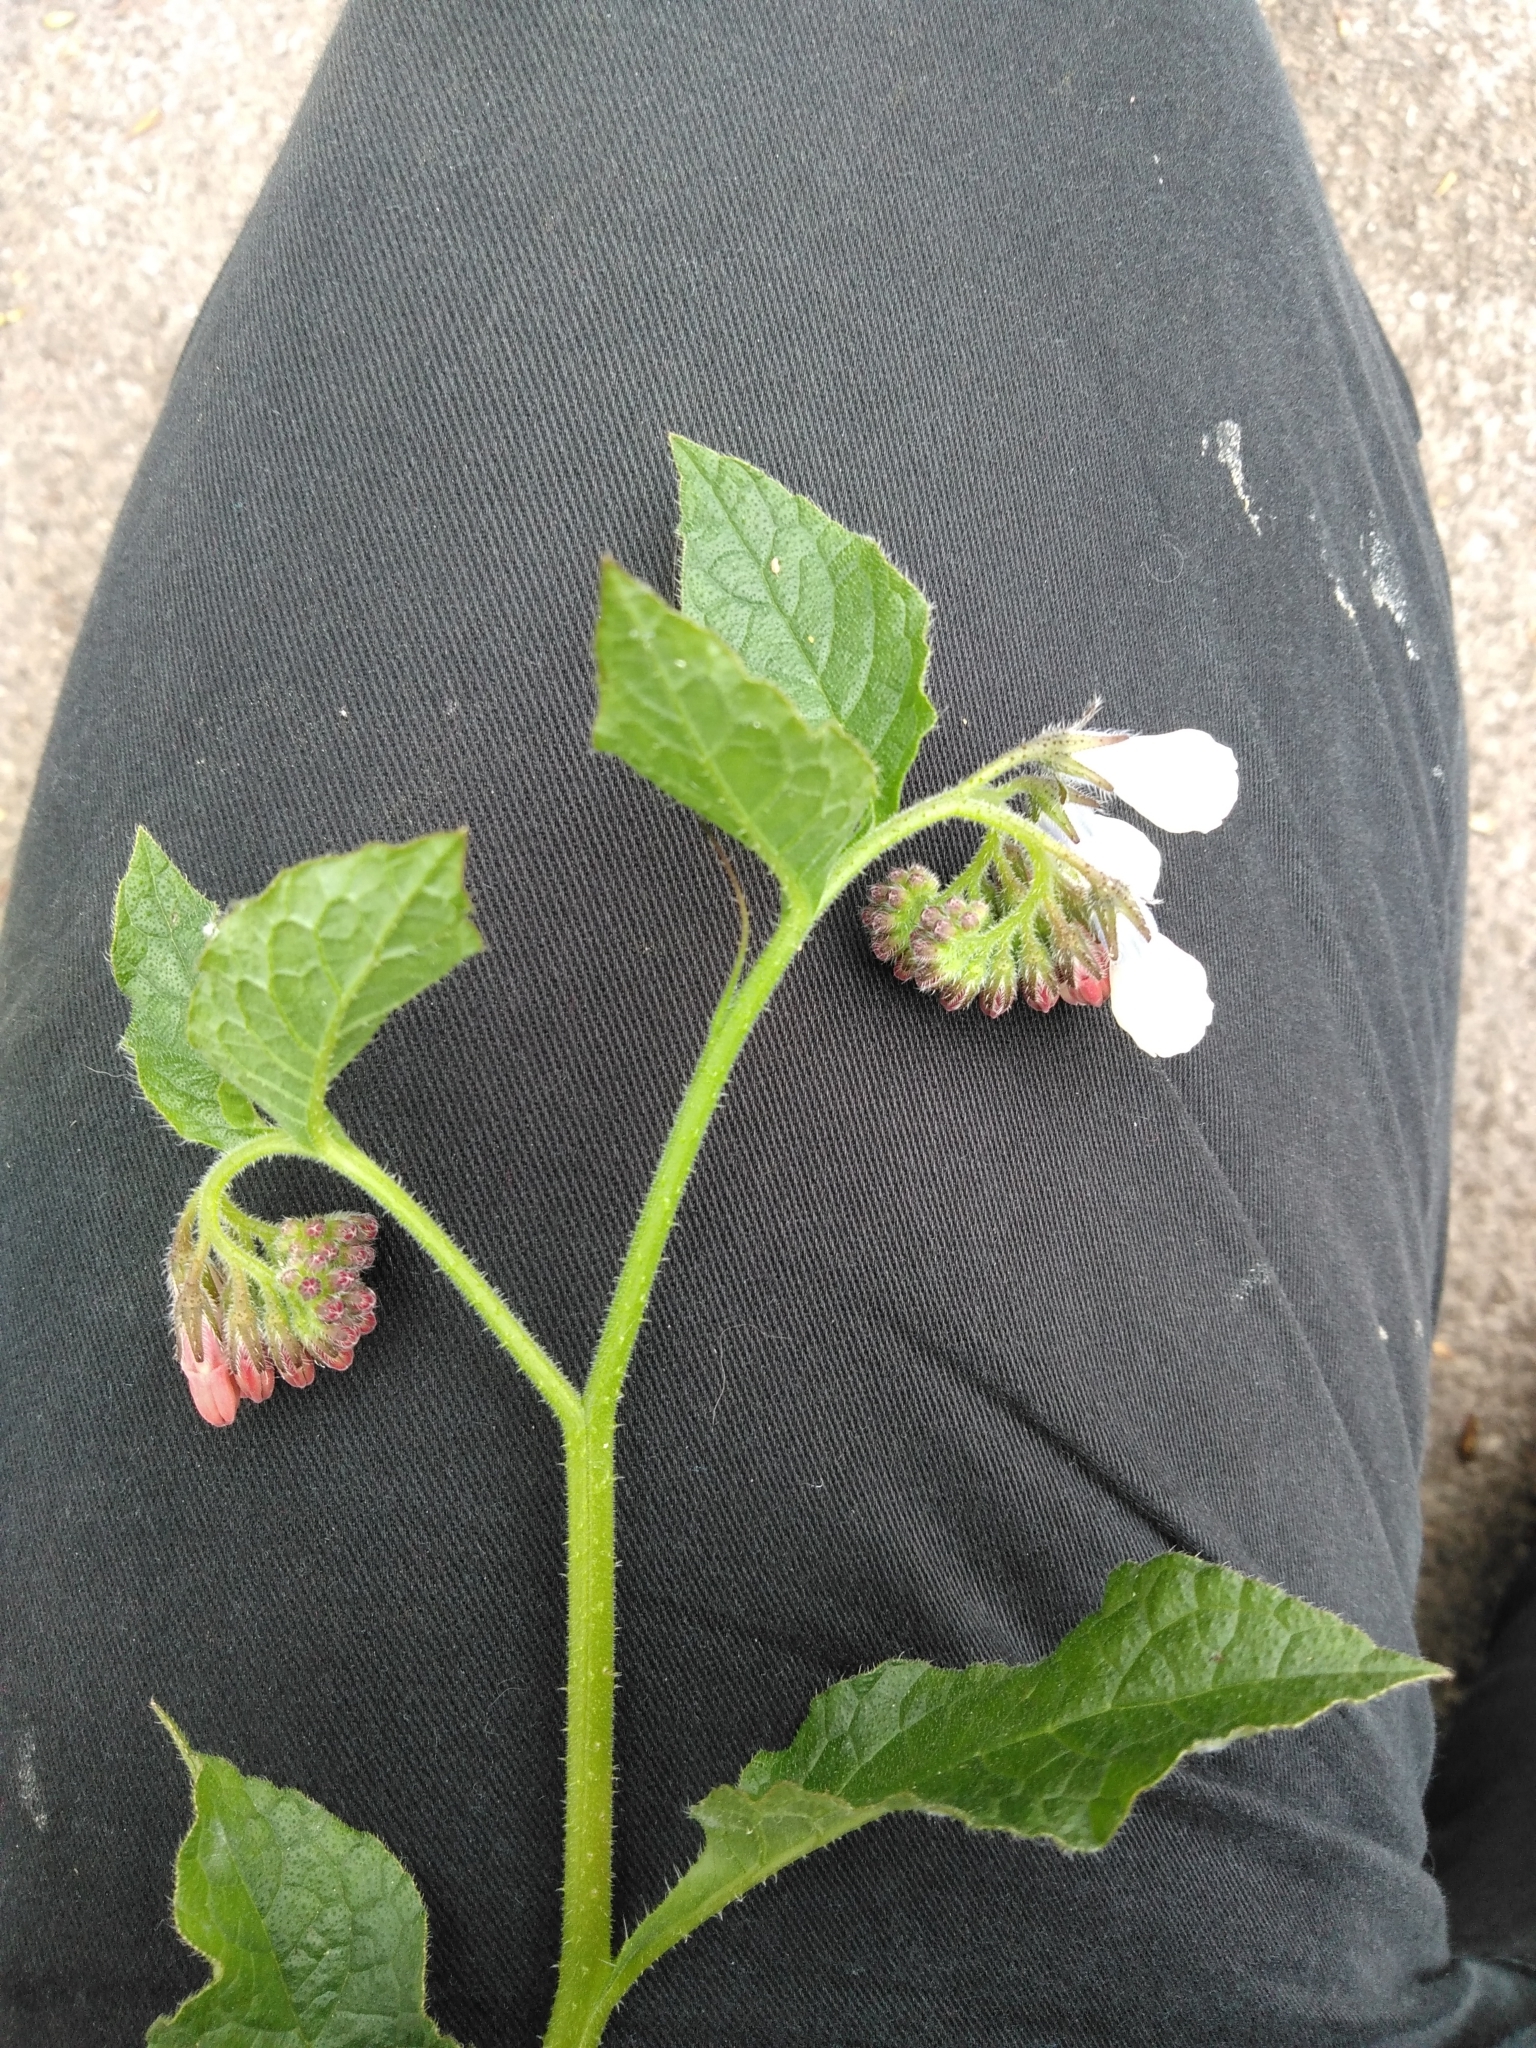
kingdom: Plantae
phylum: Tracheophyta
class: Magnoliopsida
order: Boraginales
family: Boraginaceae
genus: Symphytum
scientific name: Symphytum hidcotense
